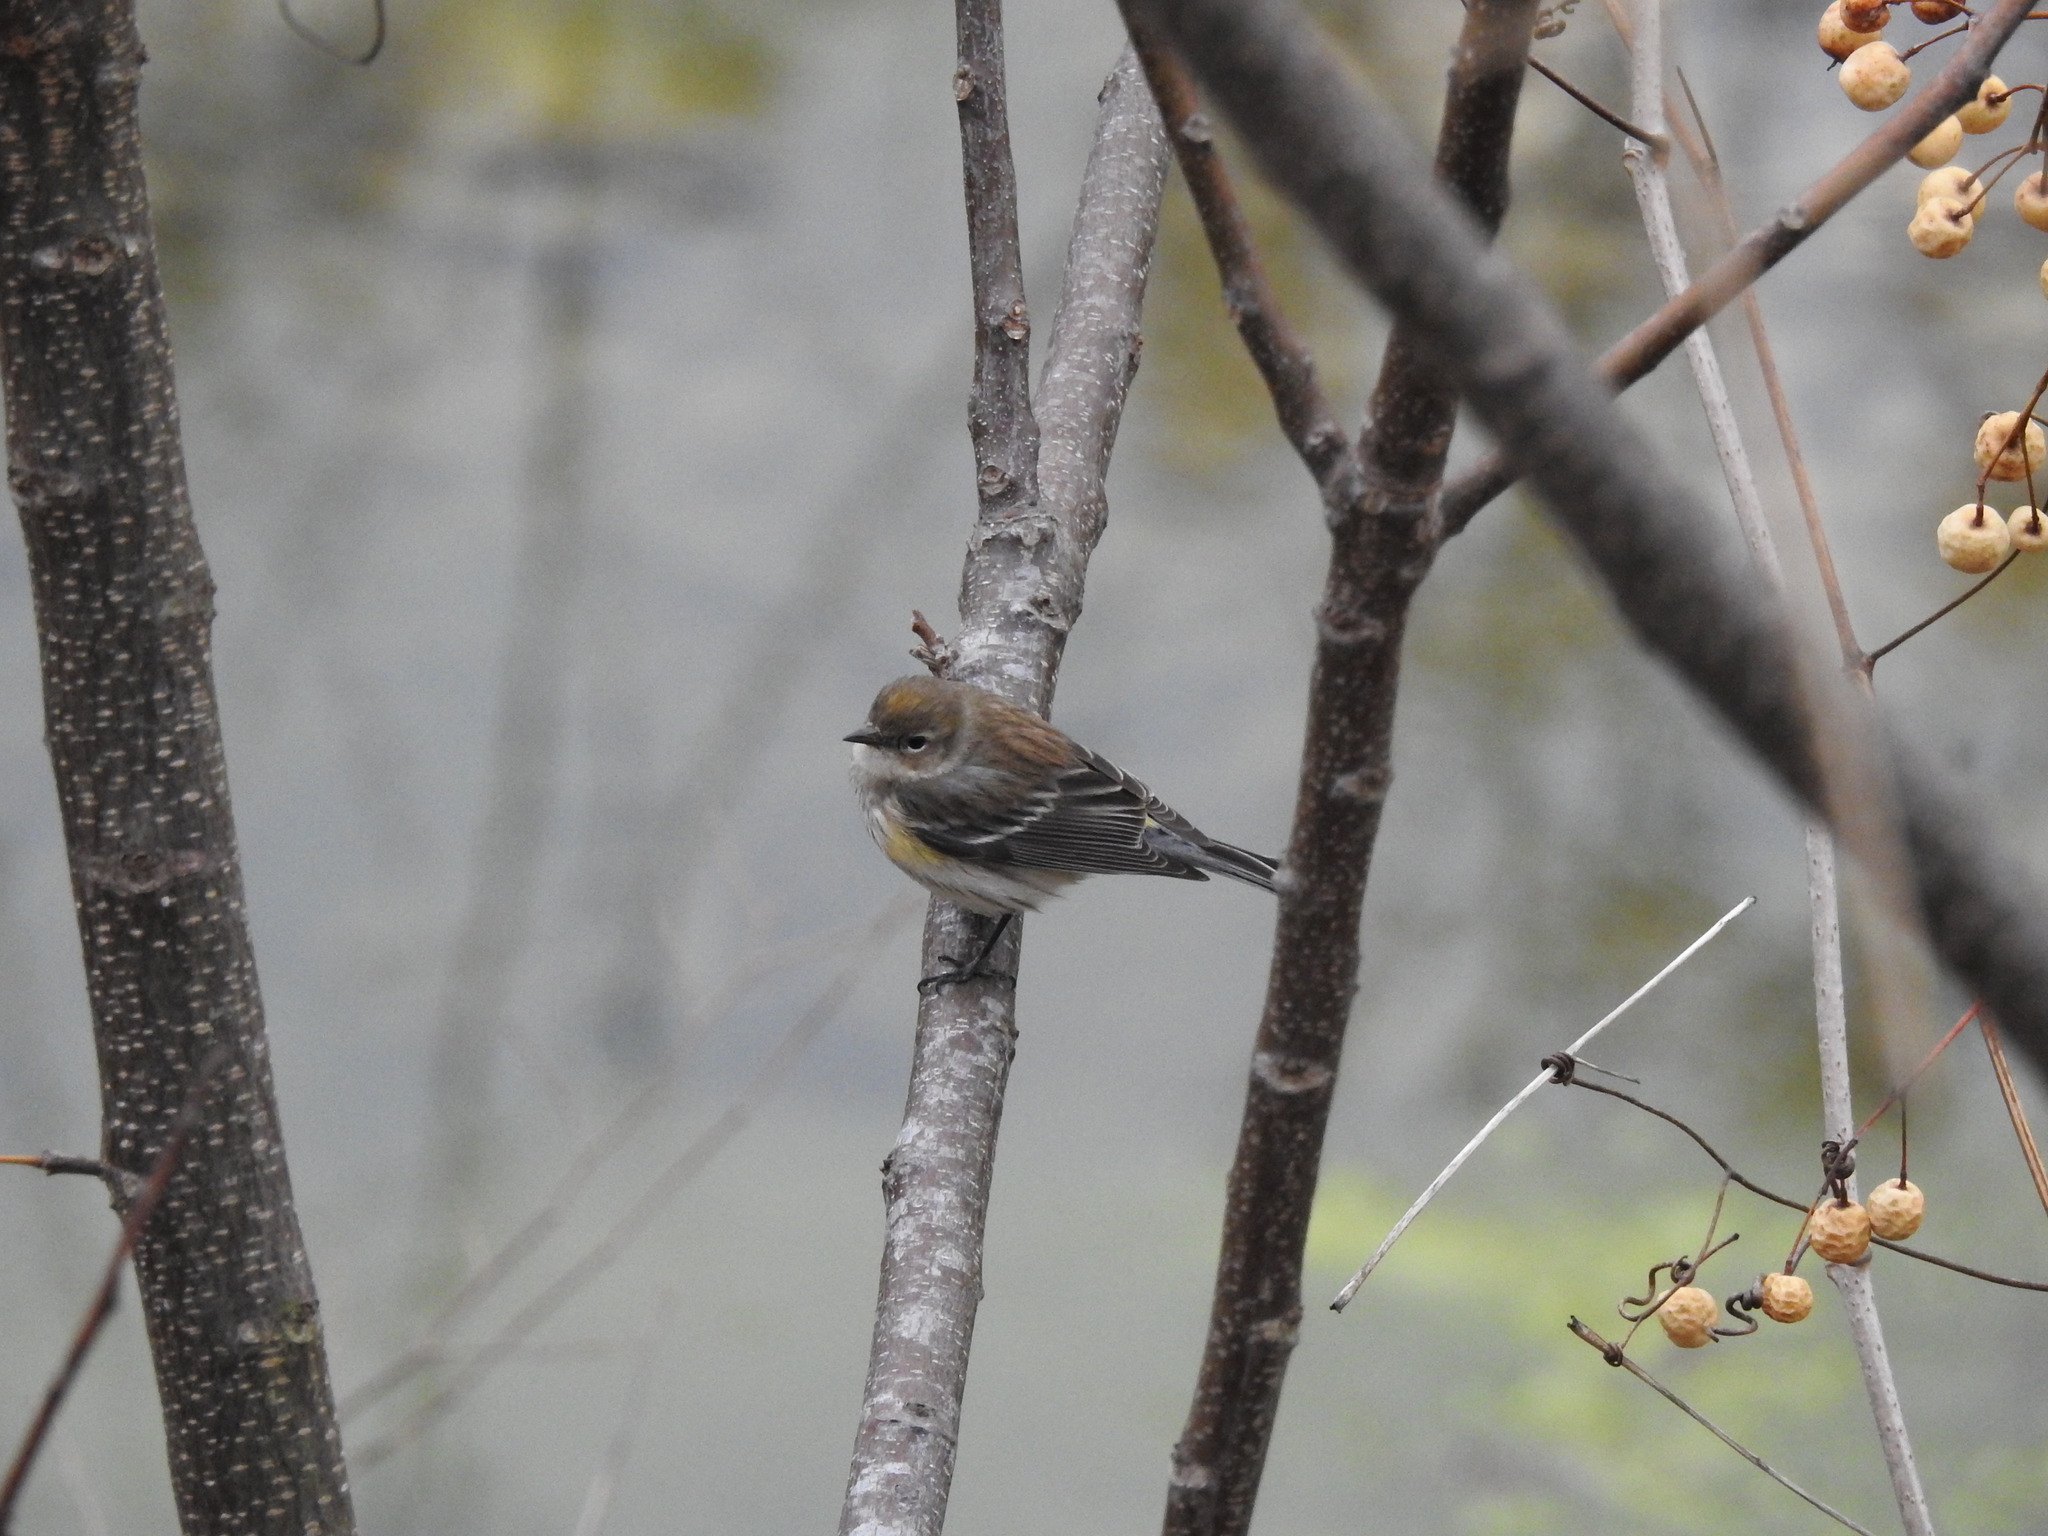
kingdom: Animalia
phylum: Chordata
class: Aves
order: Passeriformes
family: Parulidae
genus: Setophaga
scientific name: Setophaga coronata
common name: Myrtle warbler
